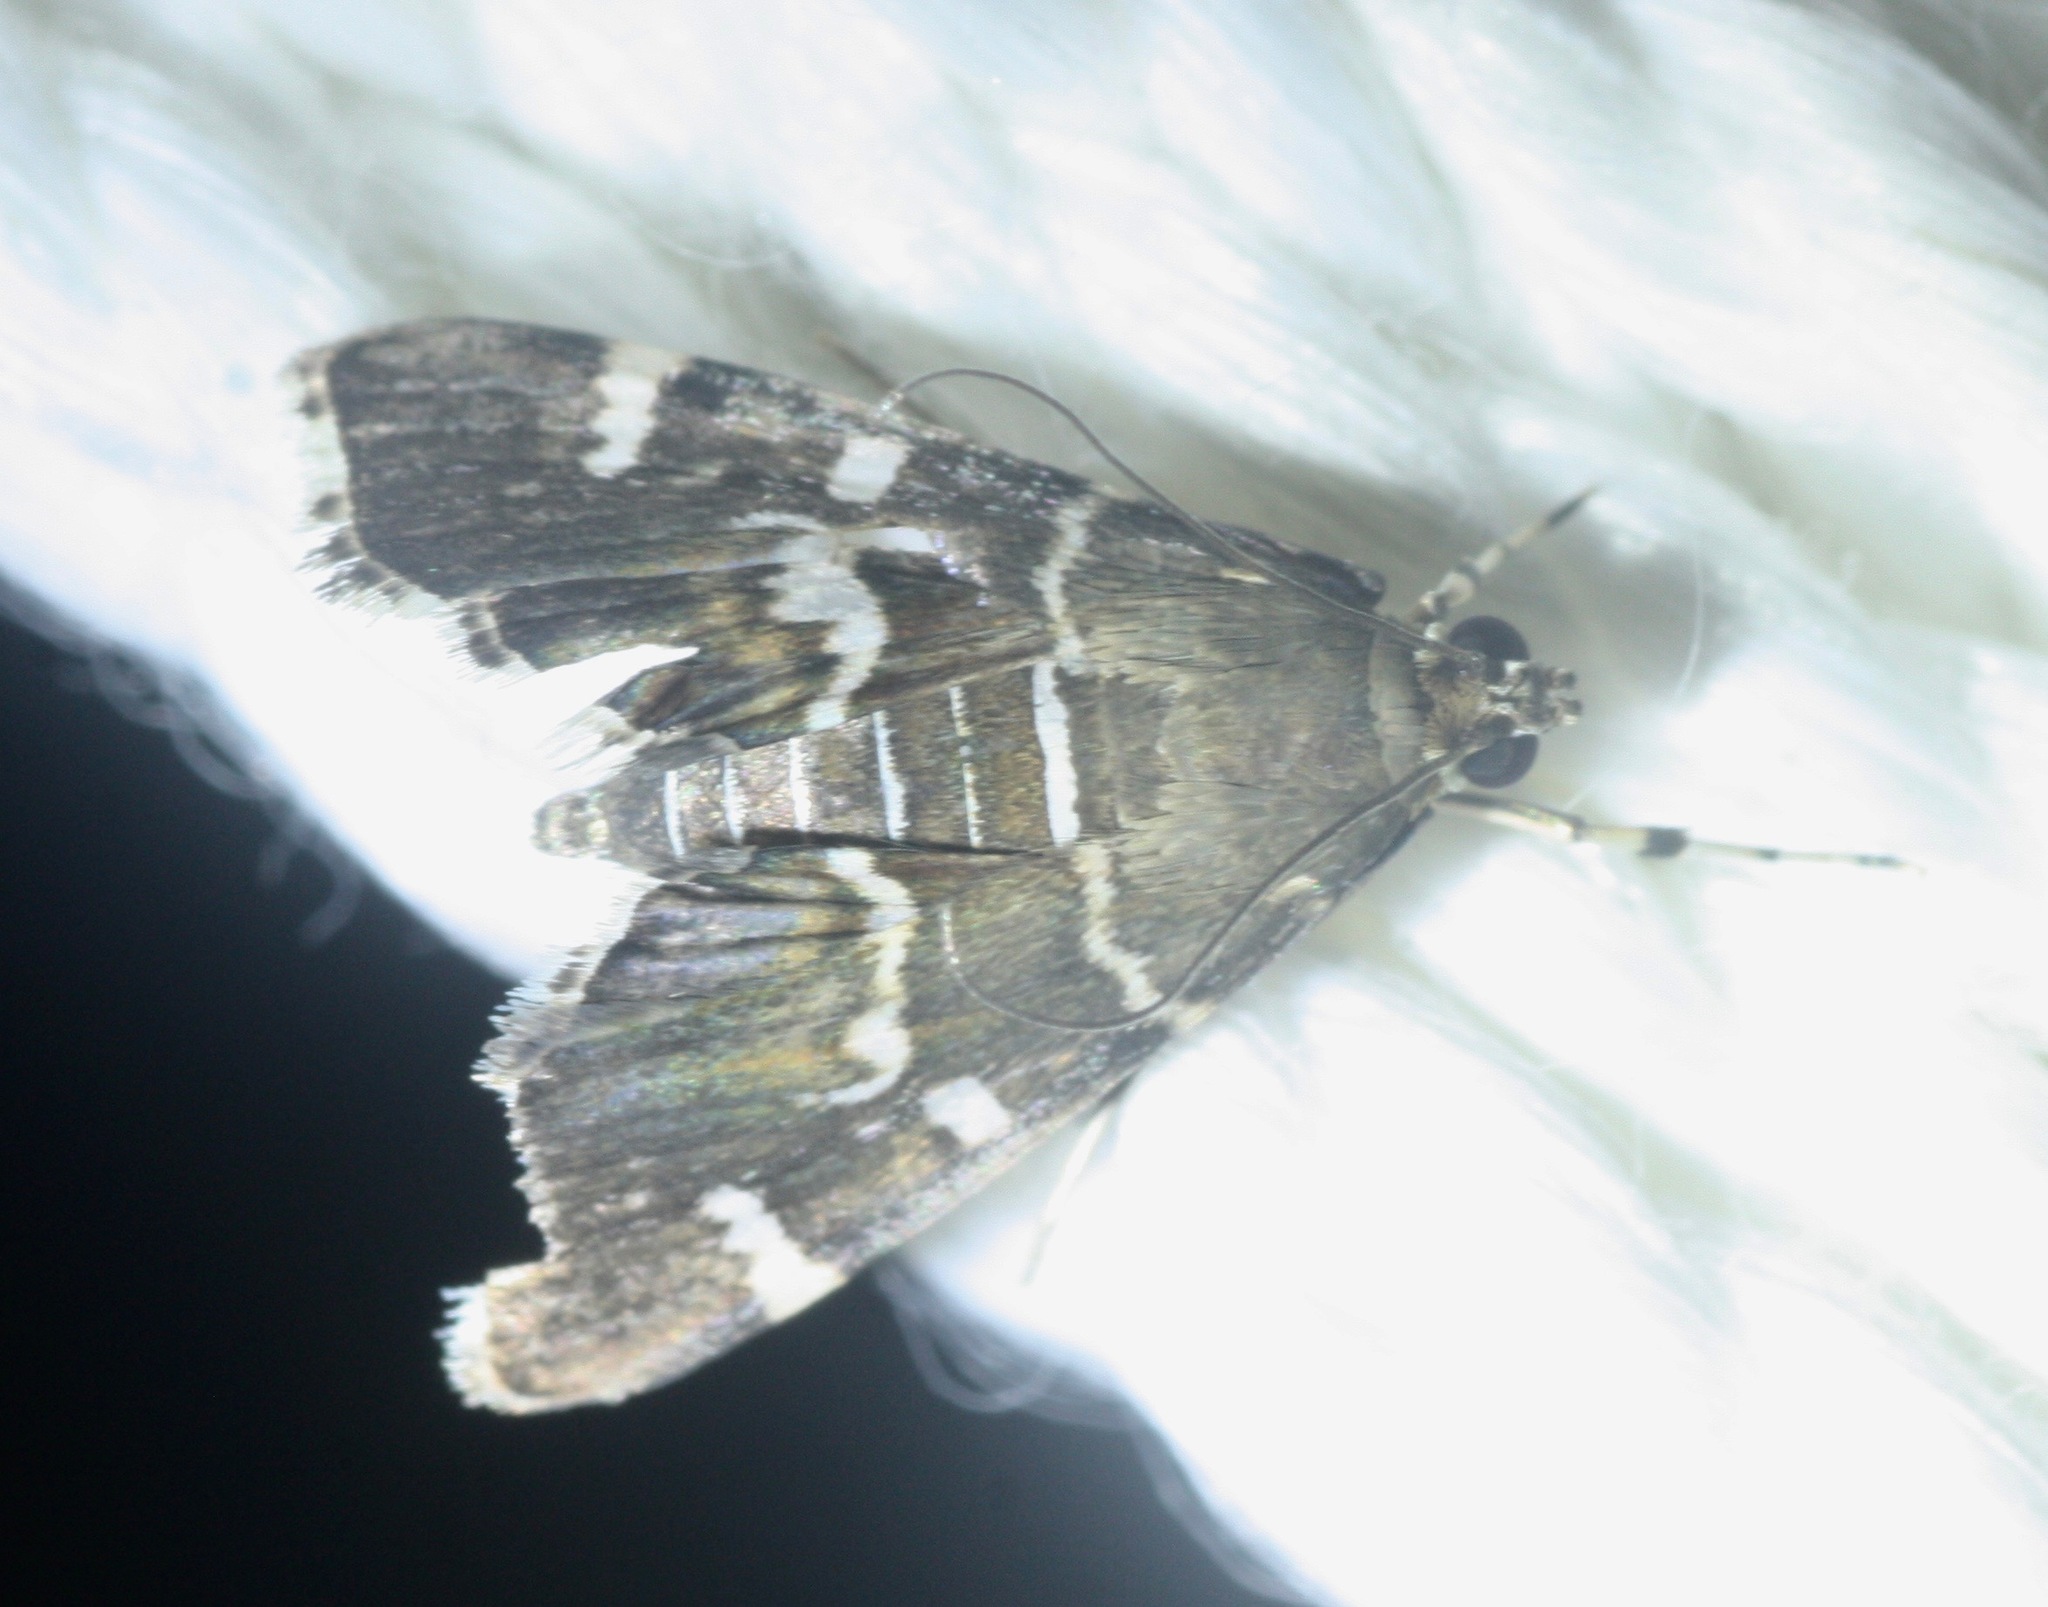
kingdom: Animalia
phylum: Arthropoda
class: Insecta
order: Lepidoptera
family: Crambidae
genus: Hymenia
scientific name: Hymenia perspectalis
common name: Spotted beet webworm
